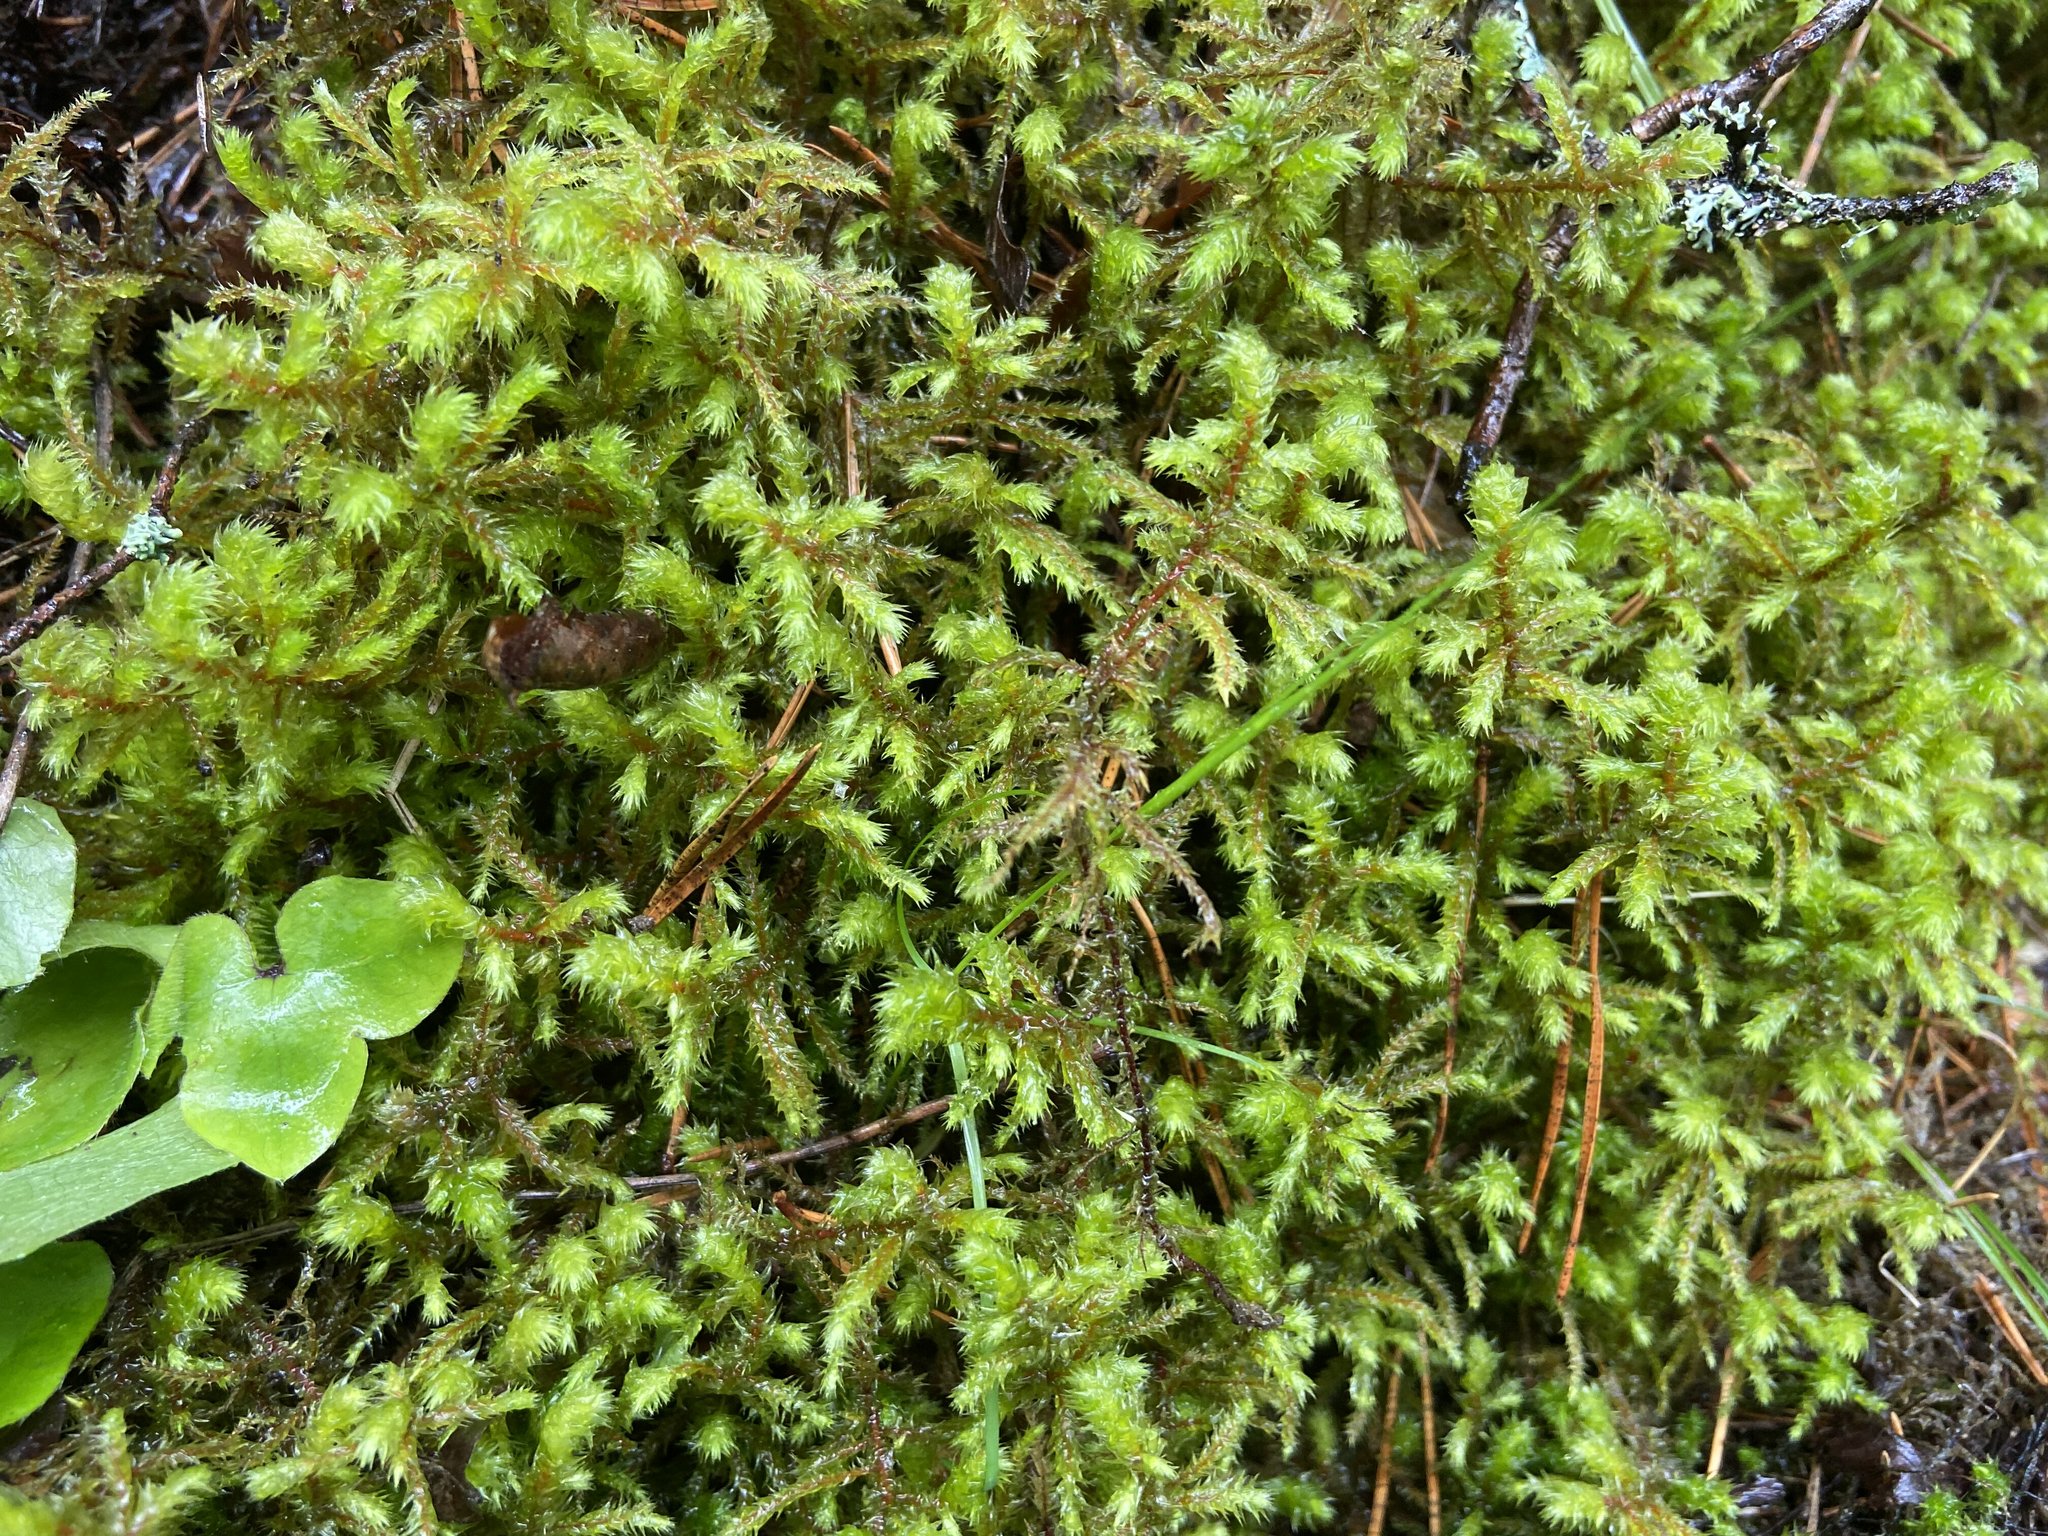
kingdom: Plantae
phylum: Bryophyta
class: Bryopsida
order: Hypnales
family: Hylocomiaceae
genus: Hylocomiadelphus
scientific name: Hylocomiadelphus triquetrus
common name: Rough goose neck moss
